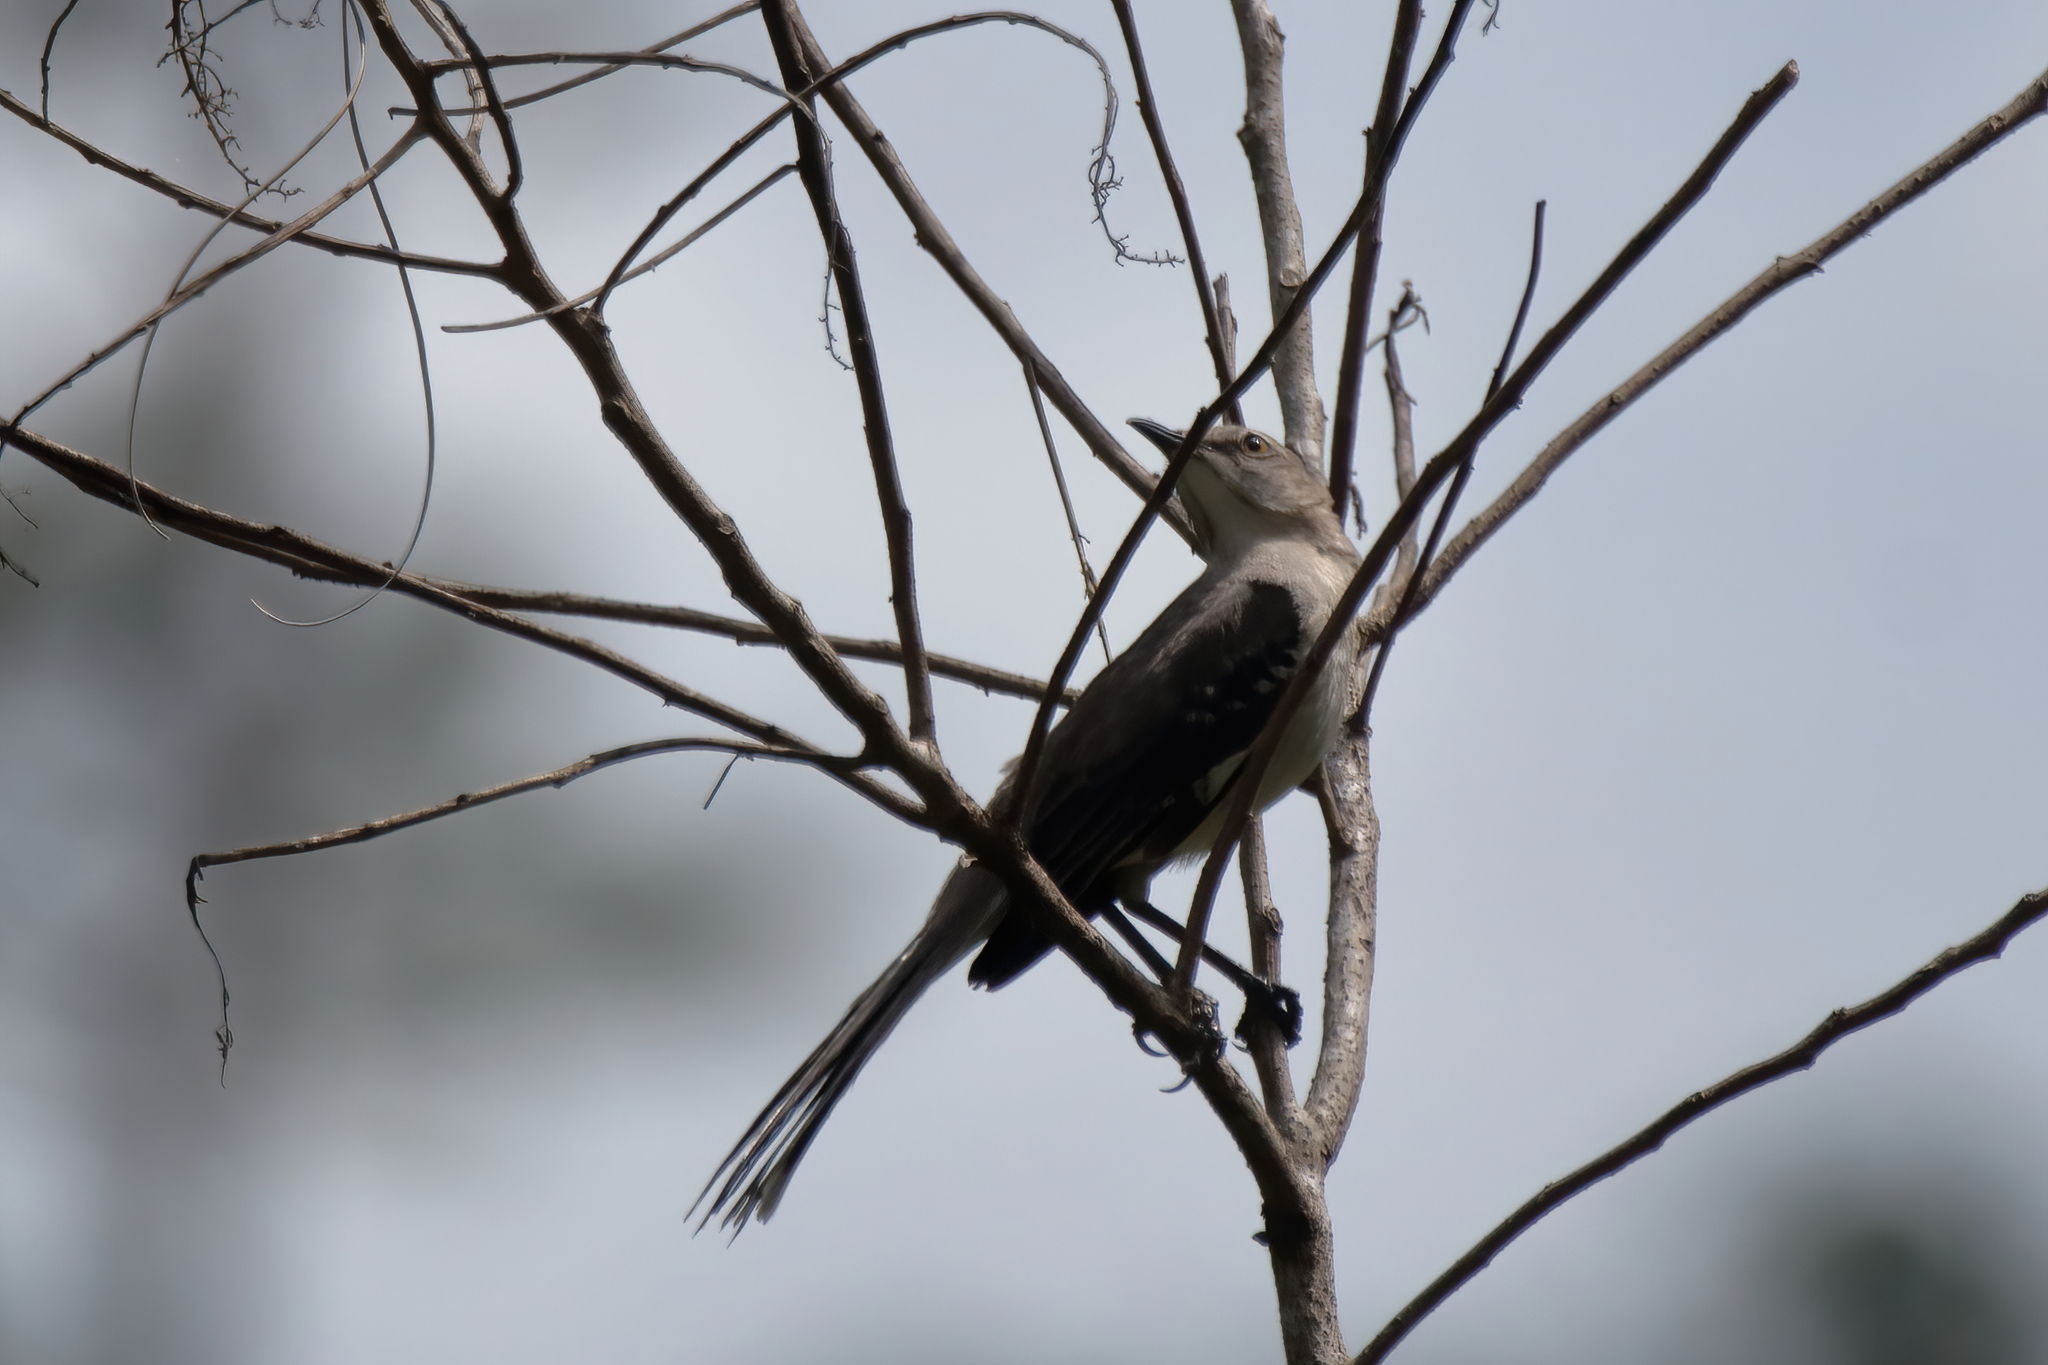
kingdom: Animalia
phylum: Chordata
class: Aves
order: Passeriformes
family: Mimidae
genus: Mimus
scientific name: Mimus polyglottos
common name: Northern mockingbird
